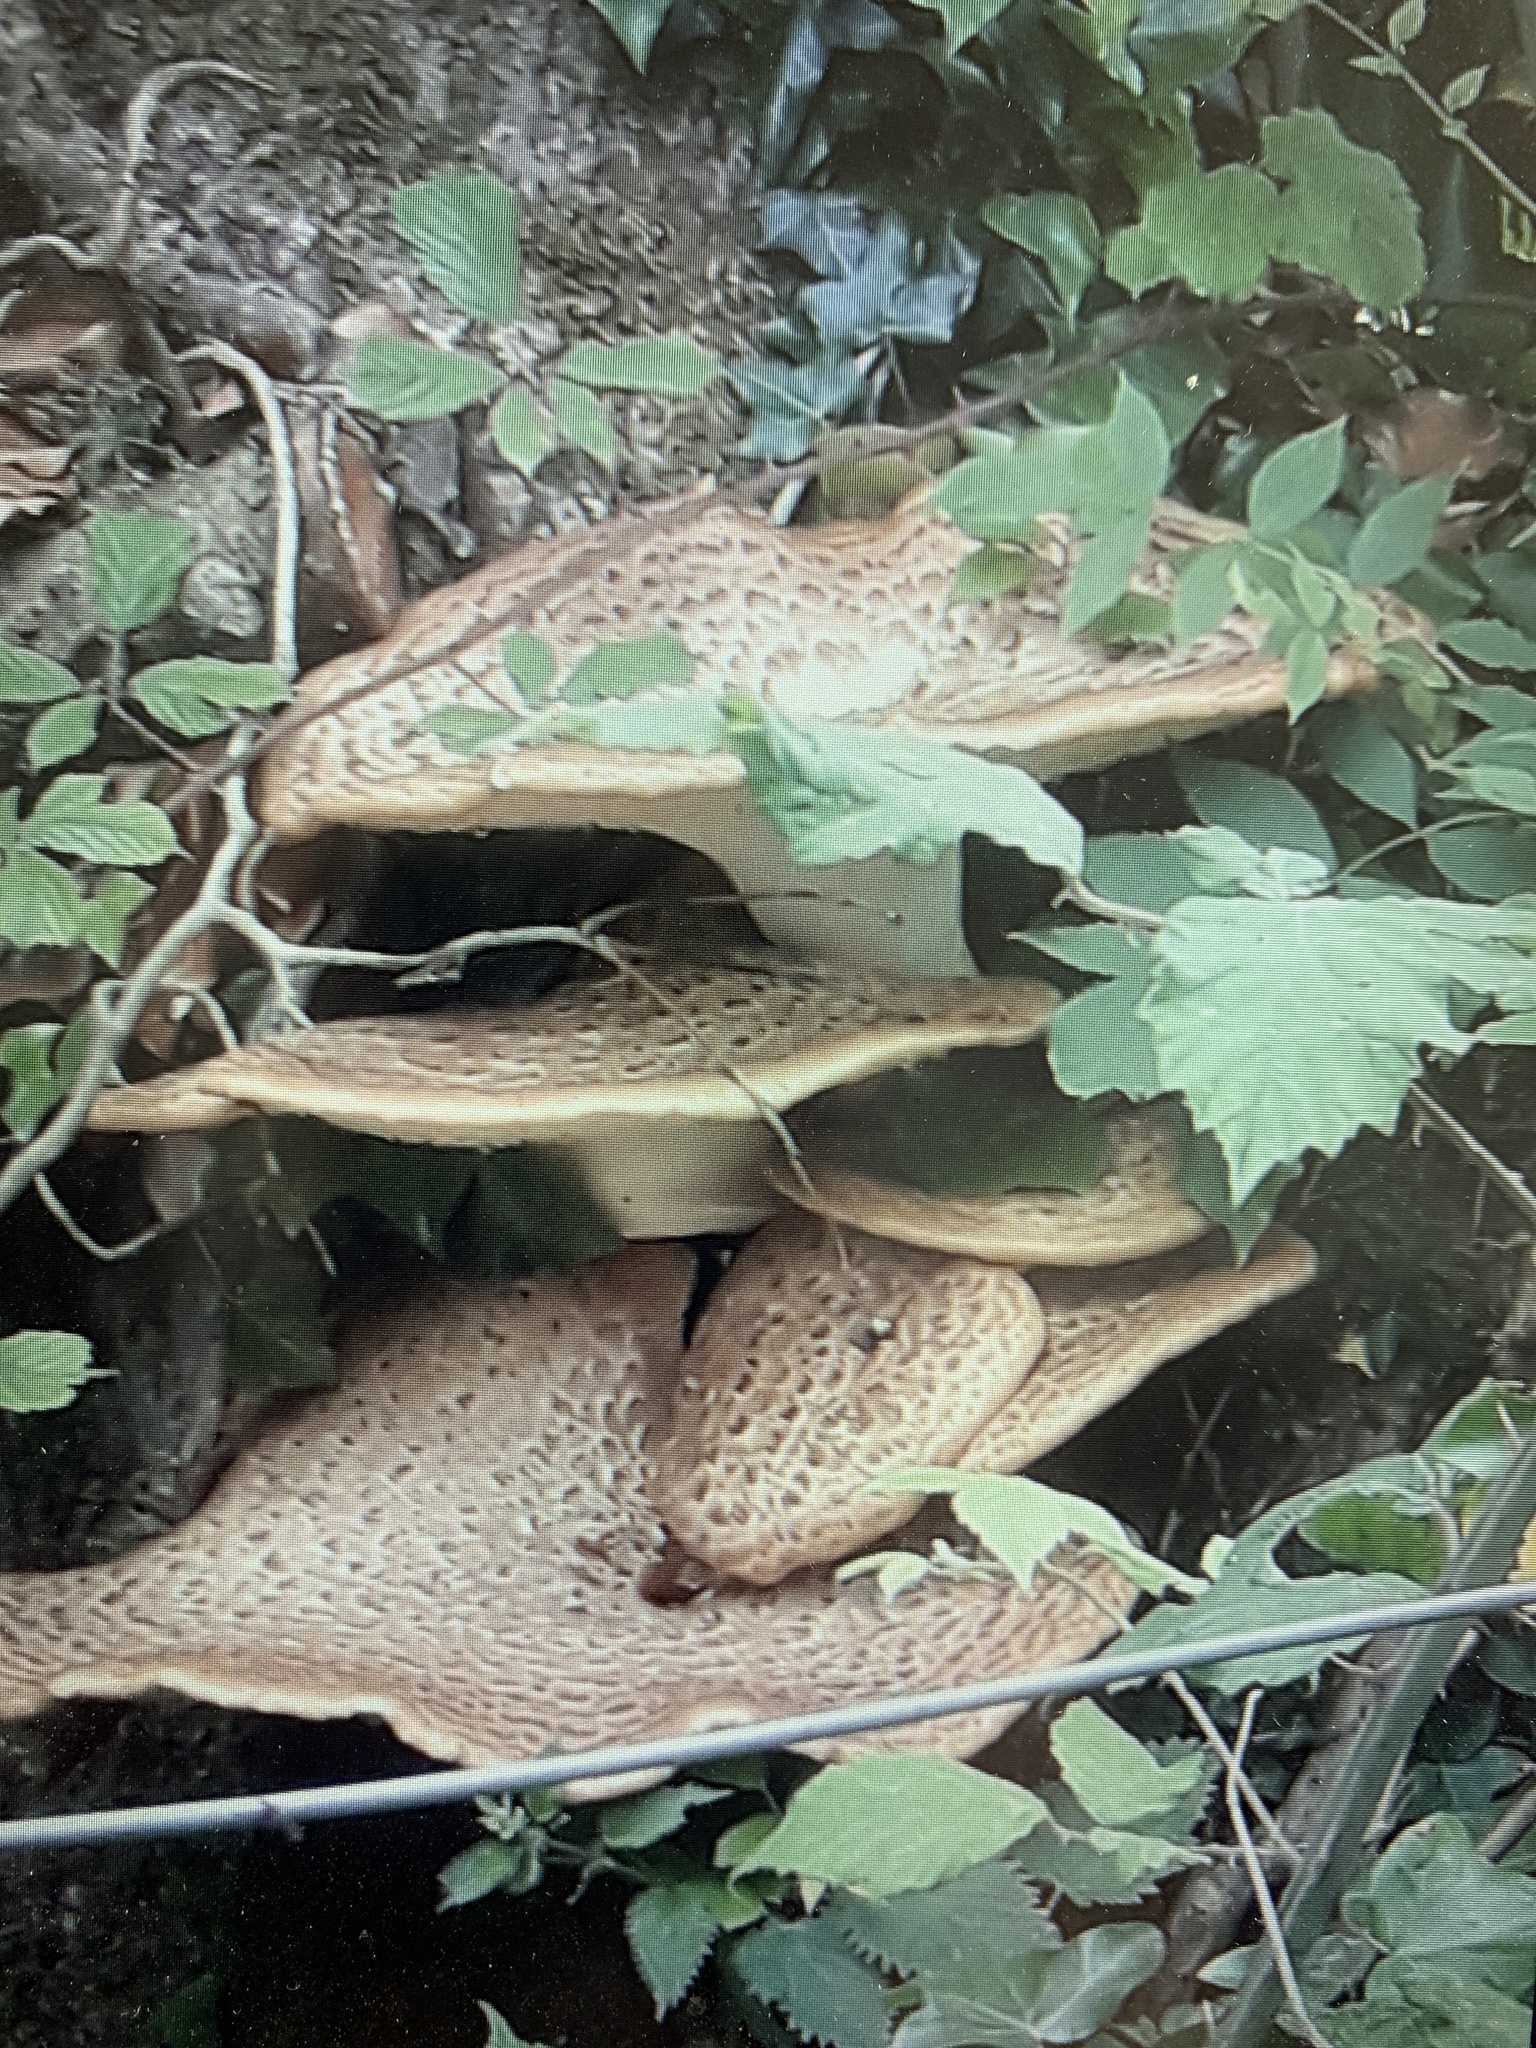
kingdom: Fungi
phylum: Basidiomycota
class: Agaricomycetes
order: Polyporales
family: Polyporaceae
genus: Cerioporus
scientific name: Cerioporus squamosus
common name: Dryad's saddle
